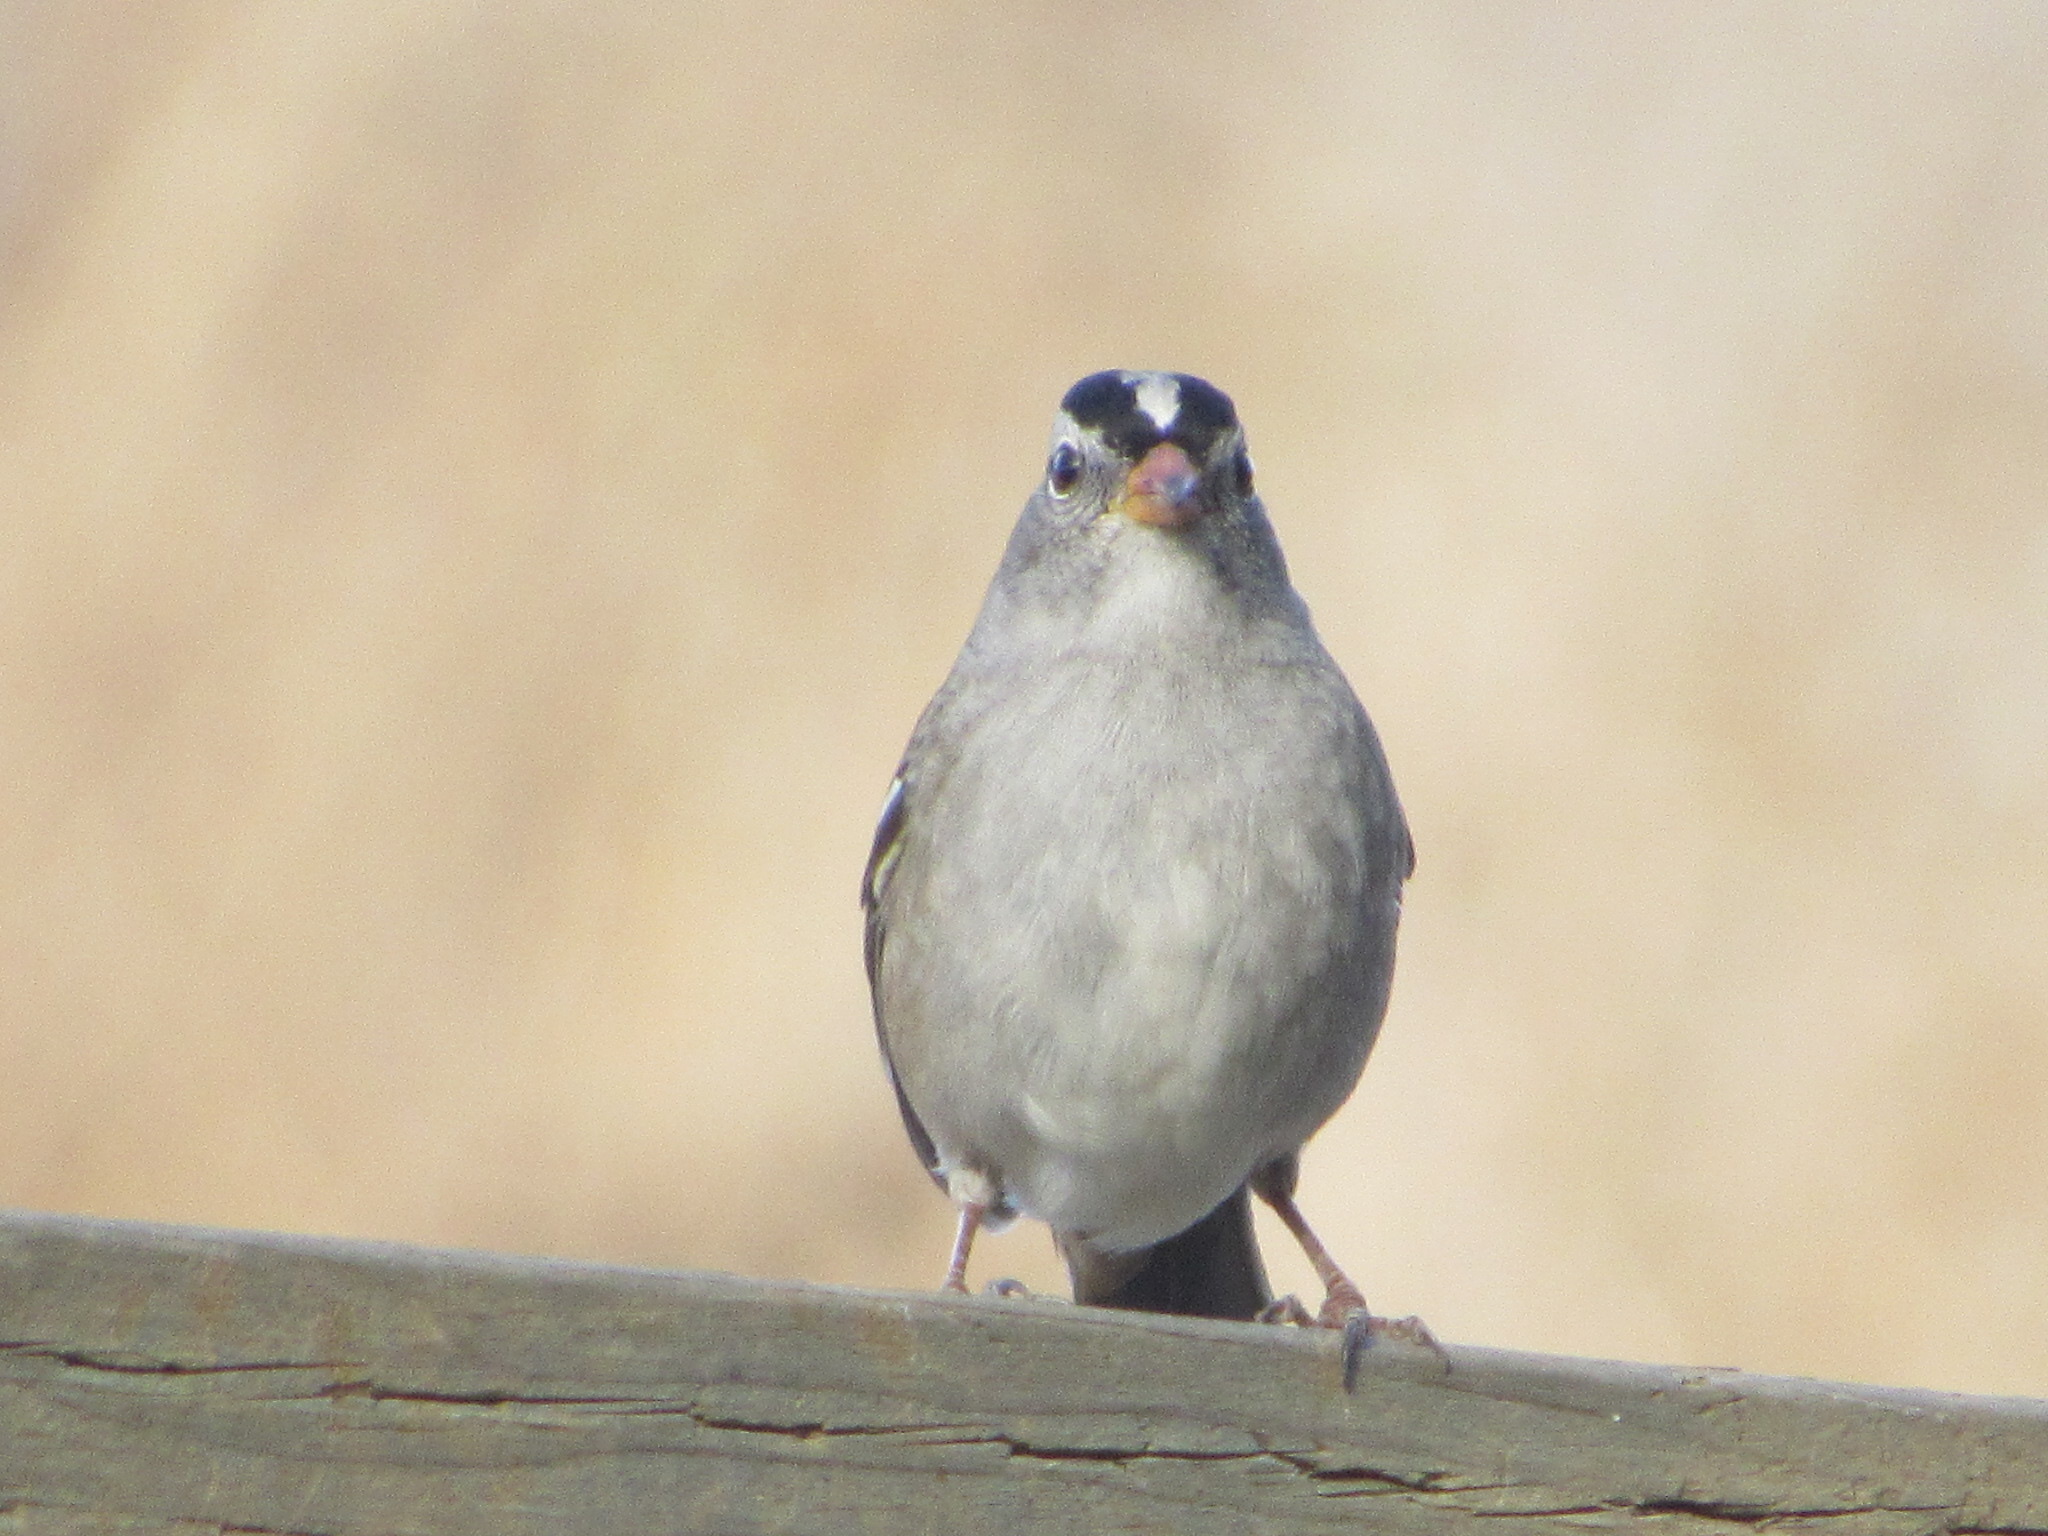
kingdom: Animalia
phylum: Chordata
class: Aves
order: Passeriformes
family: Passerellidae
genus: Zonotrichia
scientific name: Zonotrichia leucophrys
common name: White-crowned sparrow
